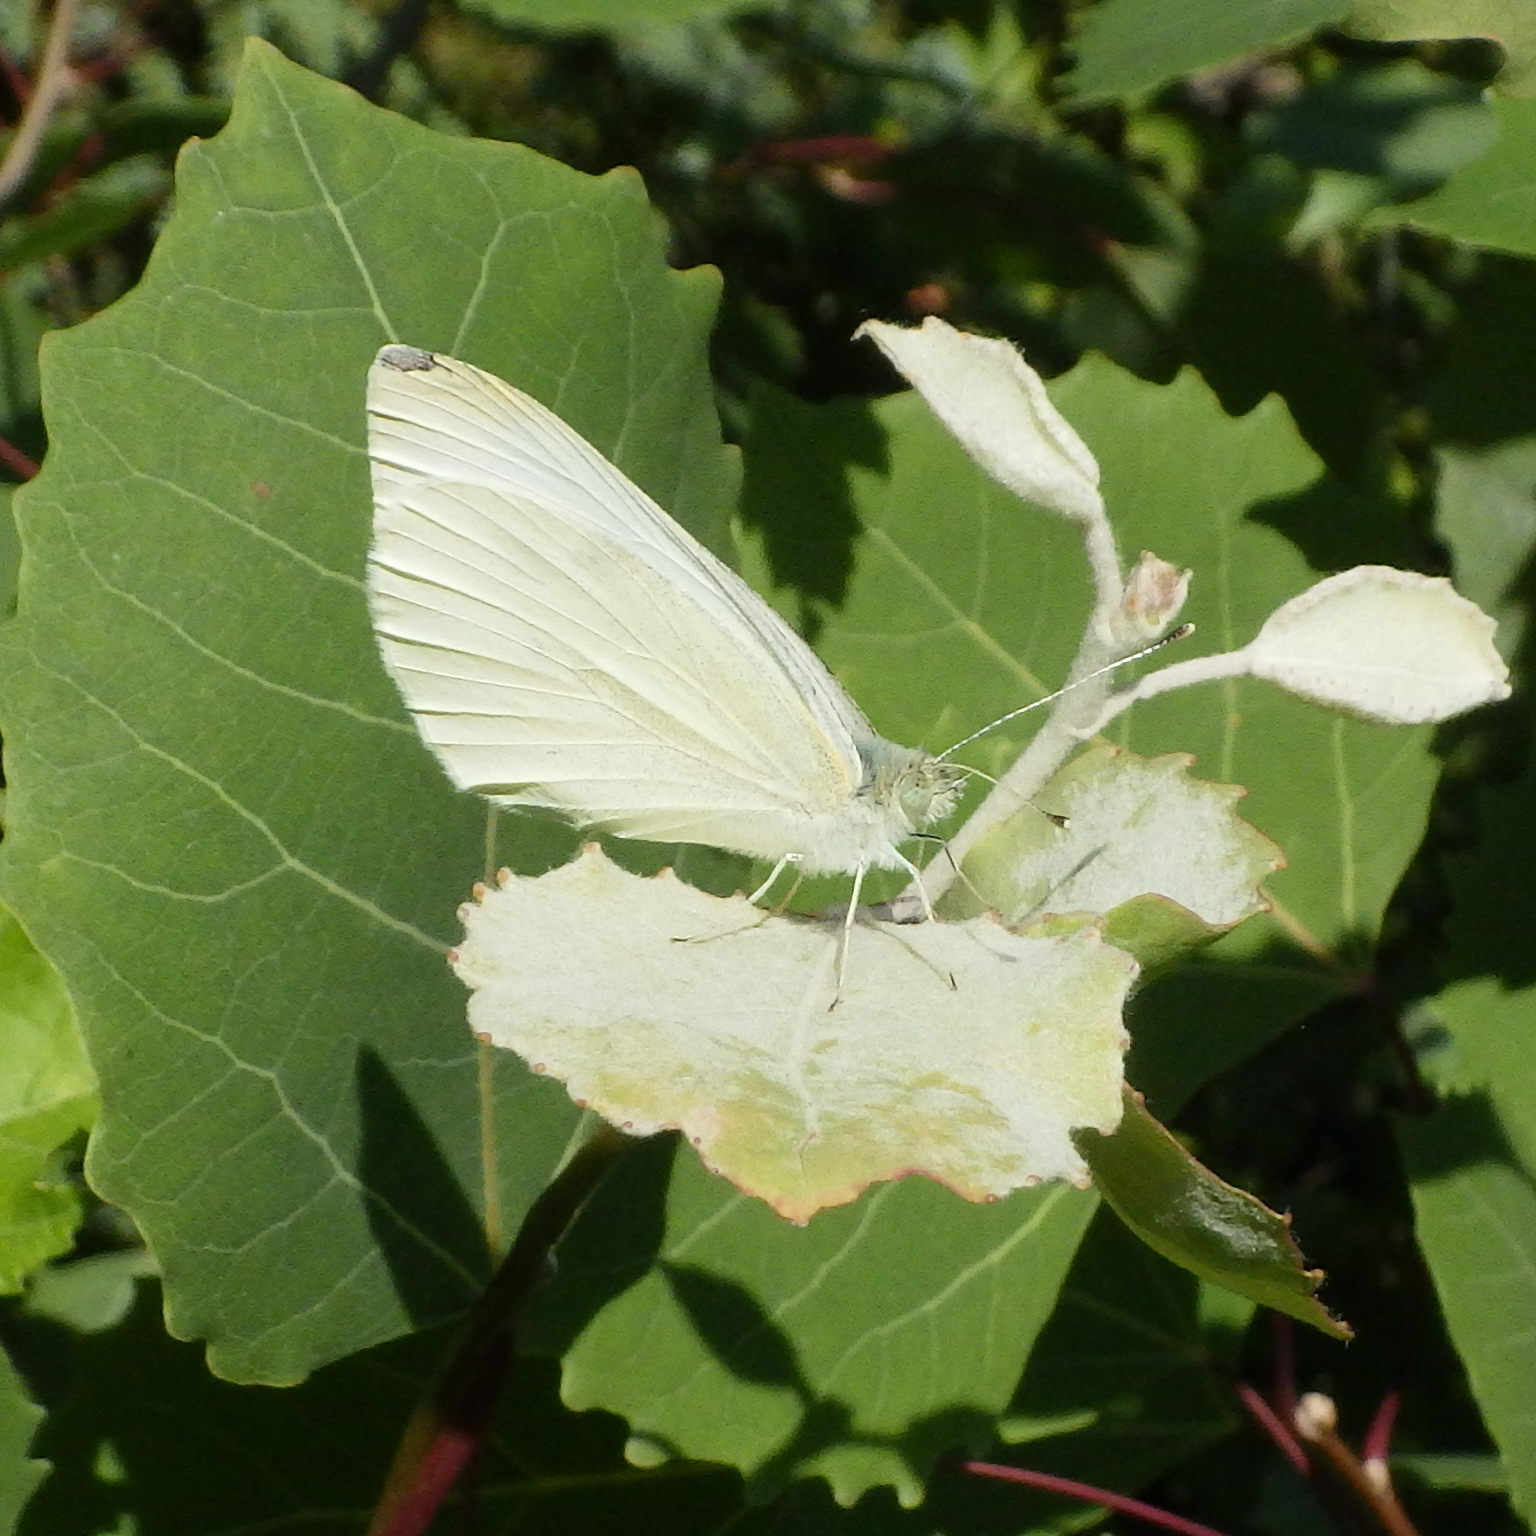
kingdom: Animalia
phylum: Arthropoda
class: Insecta
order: Lepidoptera
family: Pieridae
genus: Pieris
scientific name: Pieris rapae
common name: Small white
